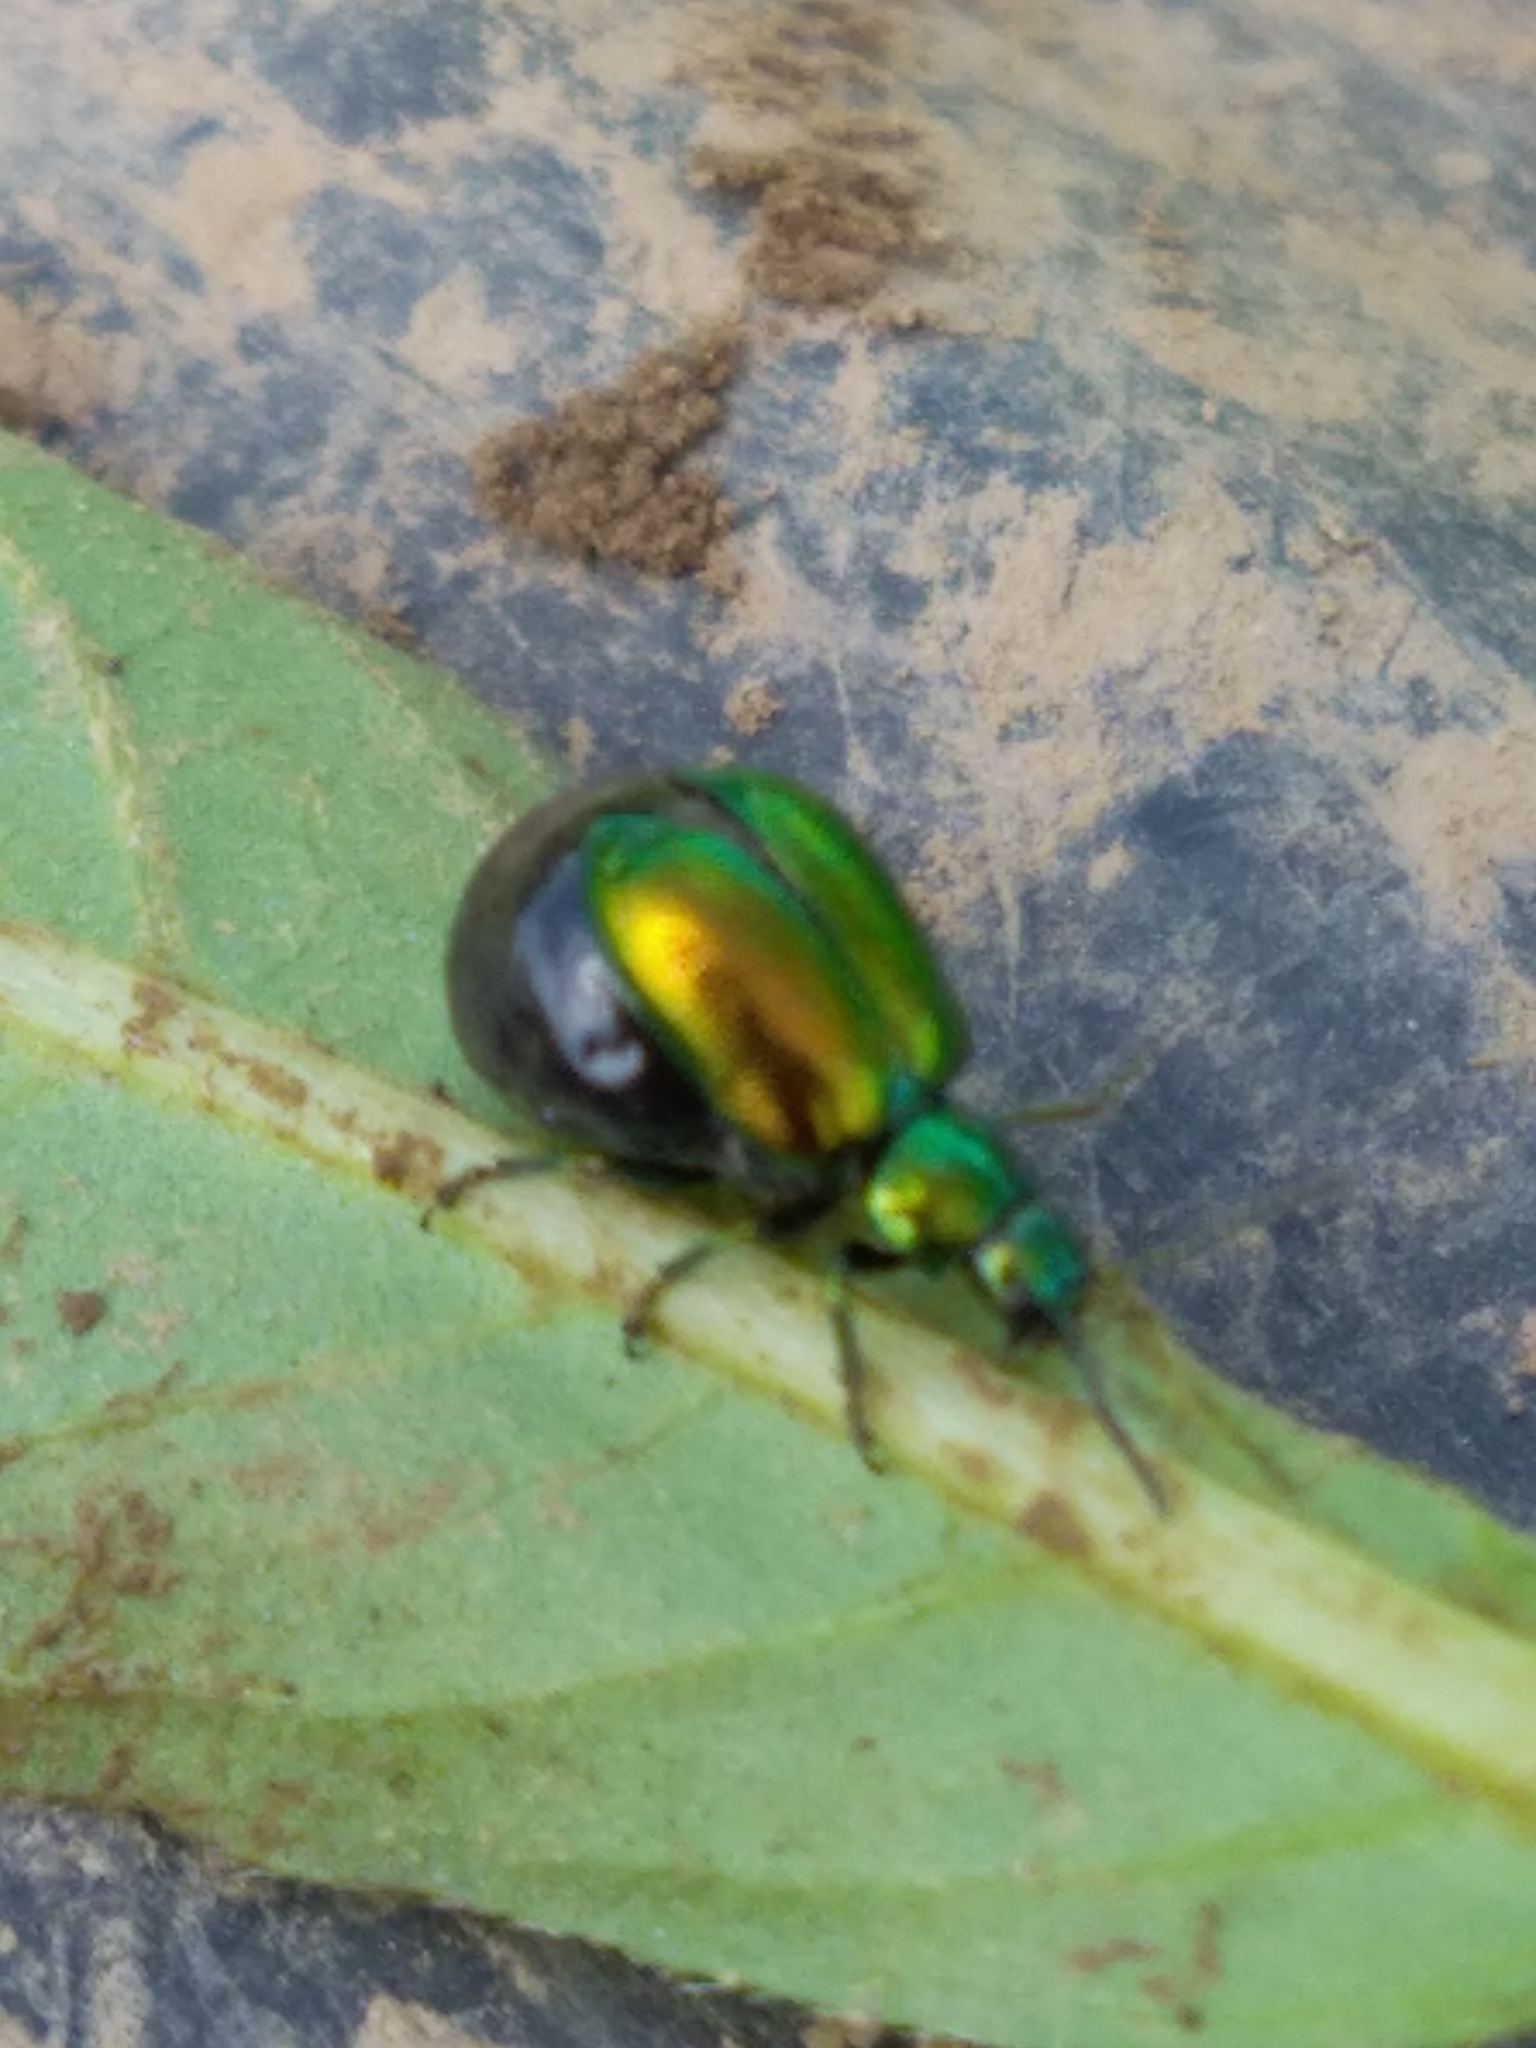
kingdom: Animalia
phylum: Arthropoda
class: Insecta
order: Coleoptera
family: Chrysomelidae
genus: Gastrophysa
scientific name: Gastrophysa viridula
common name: Green dock beetle
